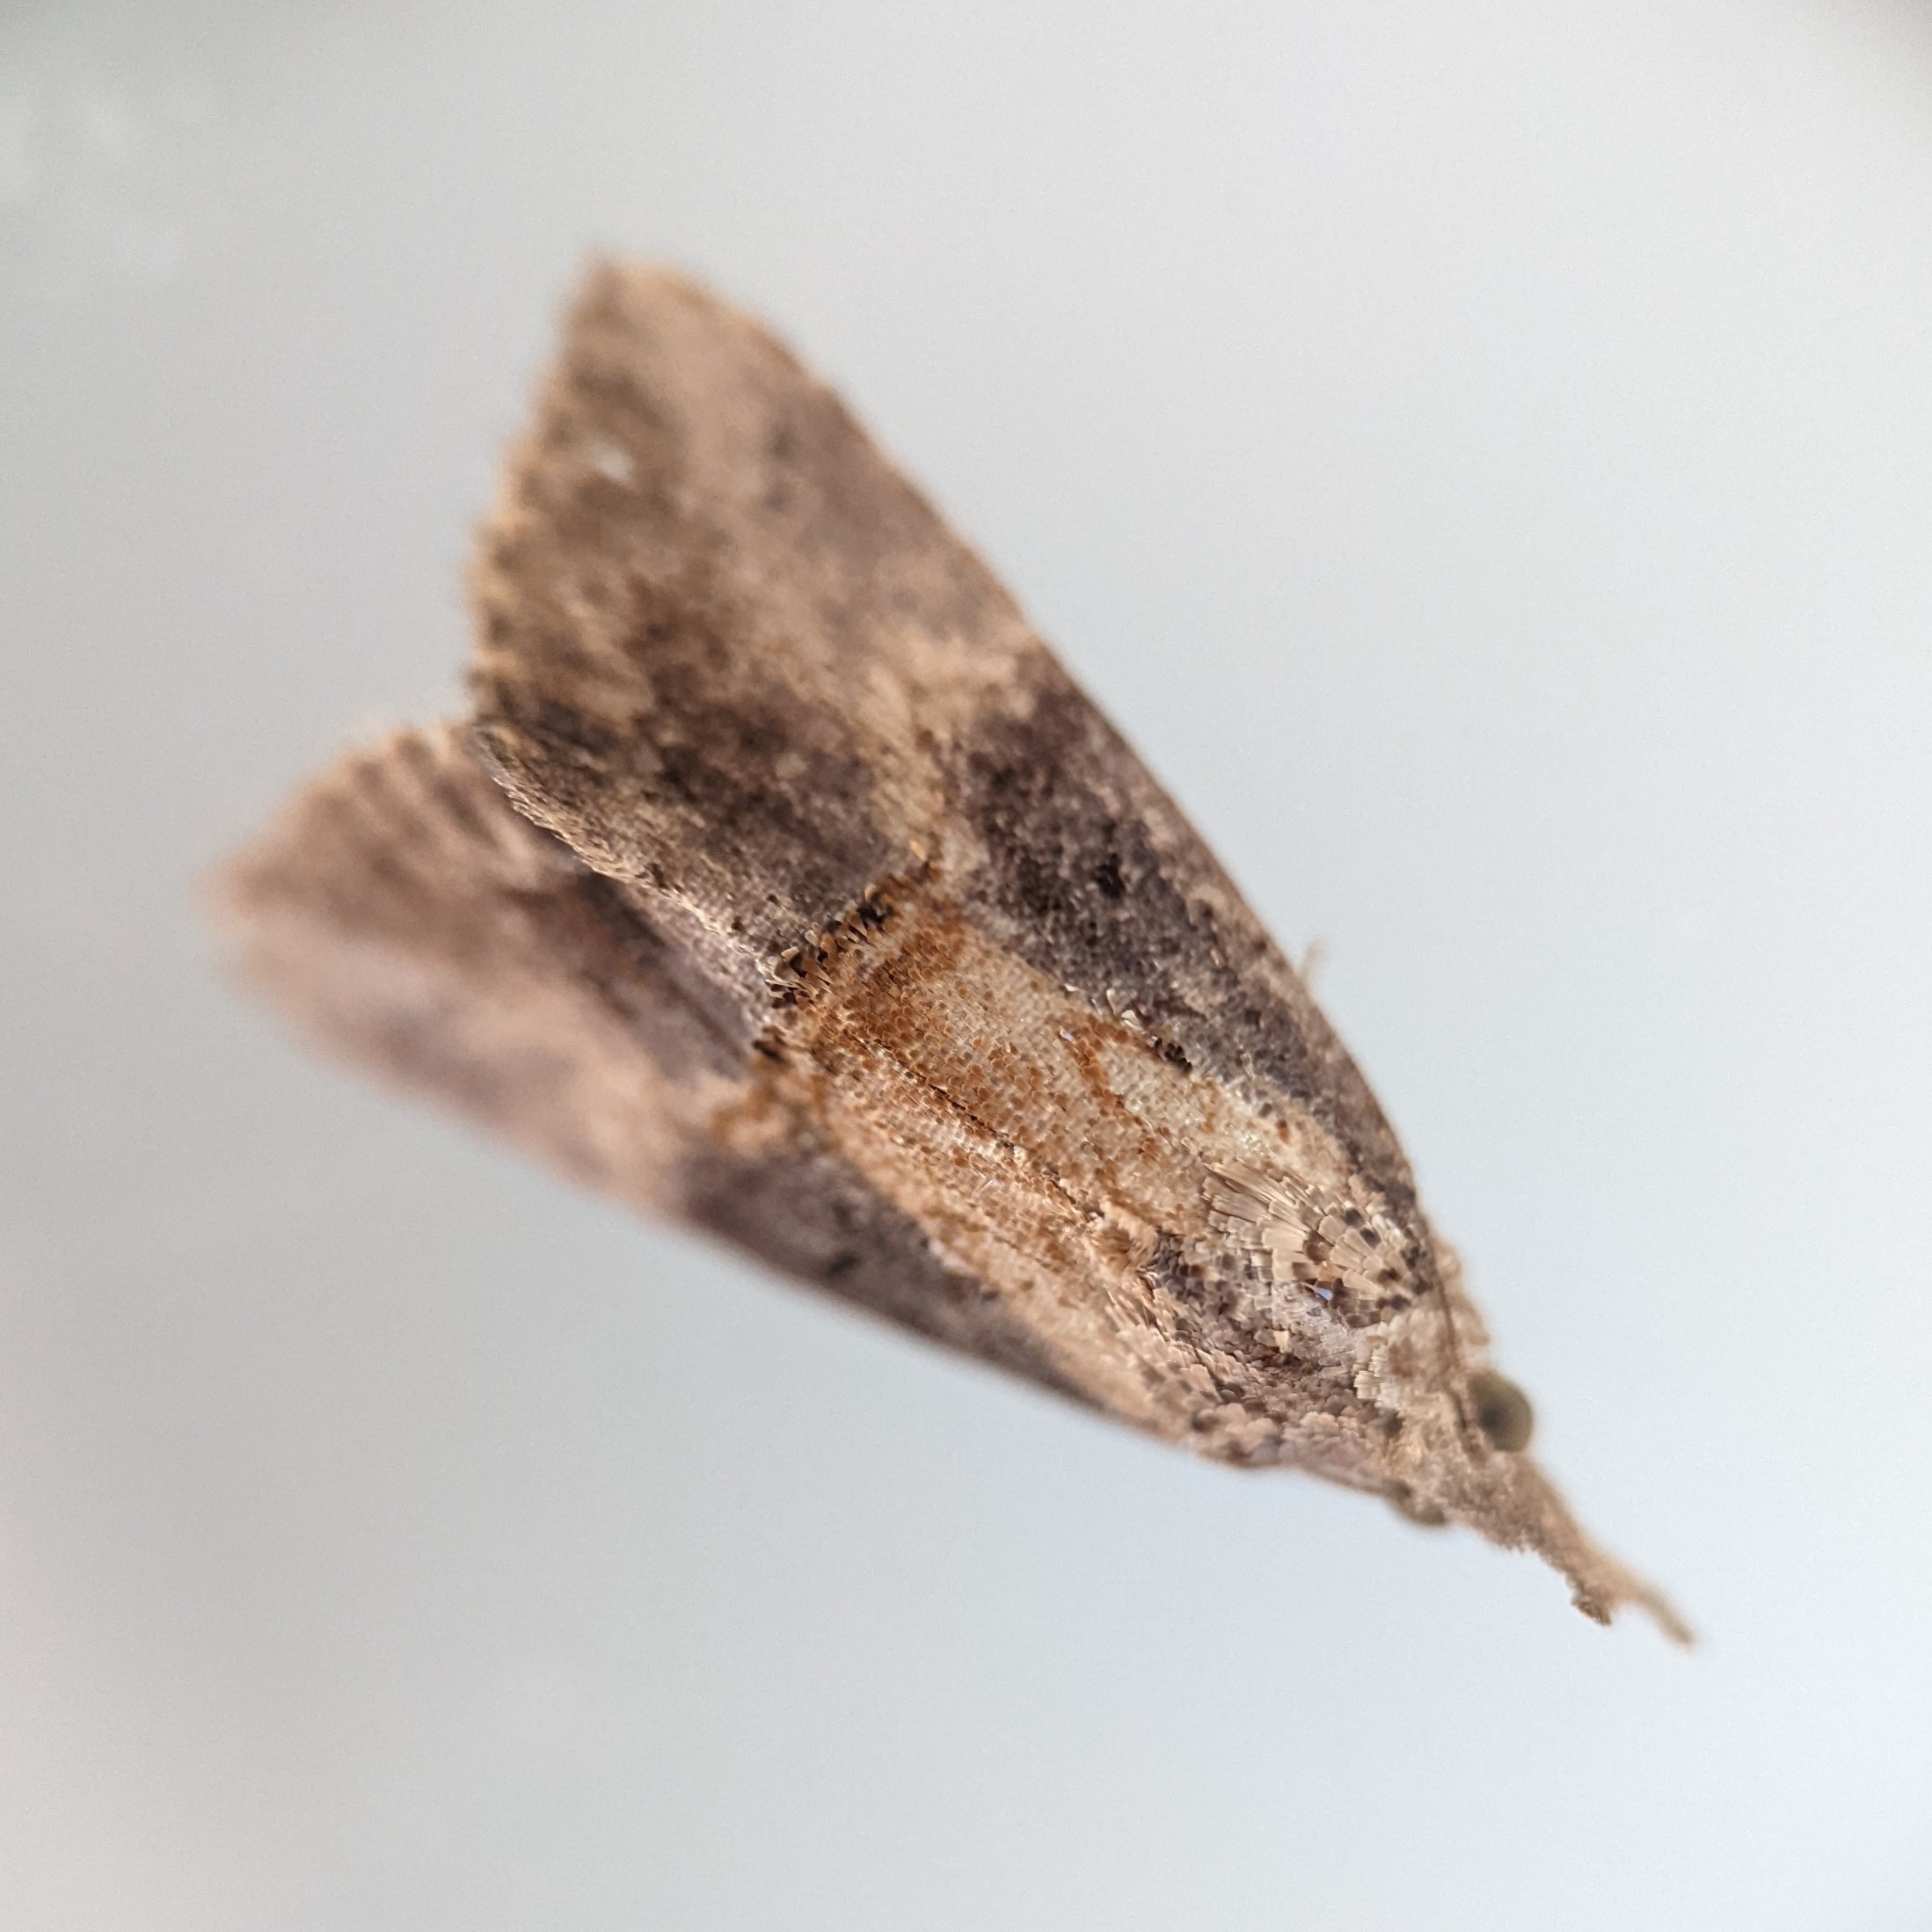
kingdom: Animalia
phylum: Arthropoda
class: Insecta
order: Lepidoptera
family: Erebidae
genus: Hypena
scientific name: Hypena scabra
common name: Green cloverworm
